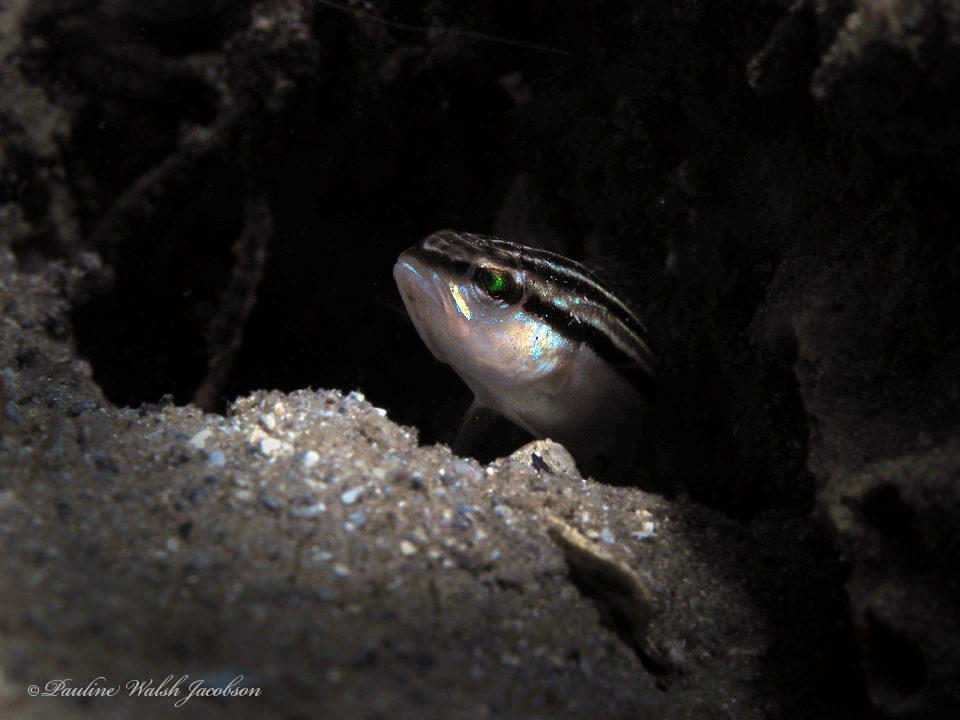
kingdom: Animalia
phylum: Chordata
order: Perciformes
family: Serranidae
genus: Diplectrum
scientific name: Diplectrum formosum
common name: Sand perch
